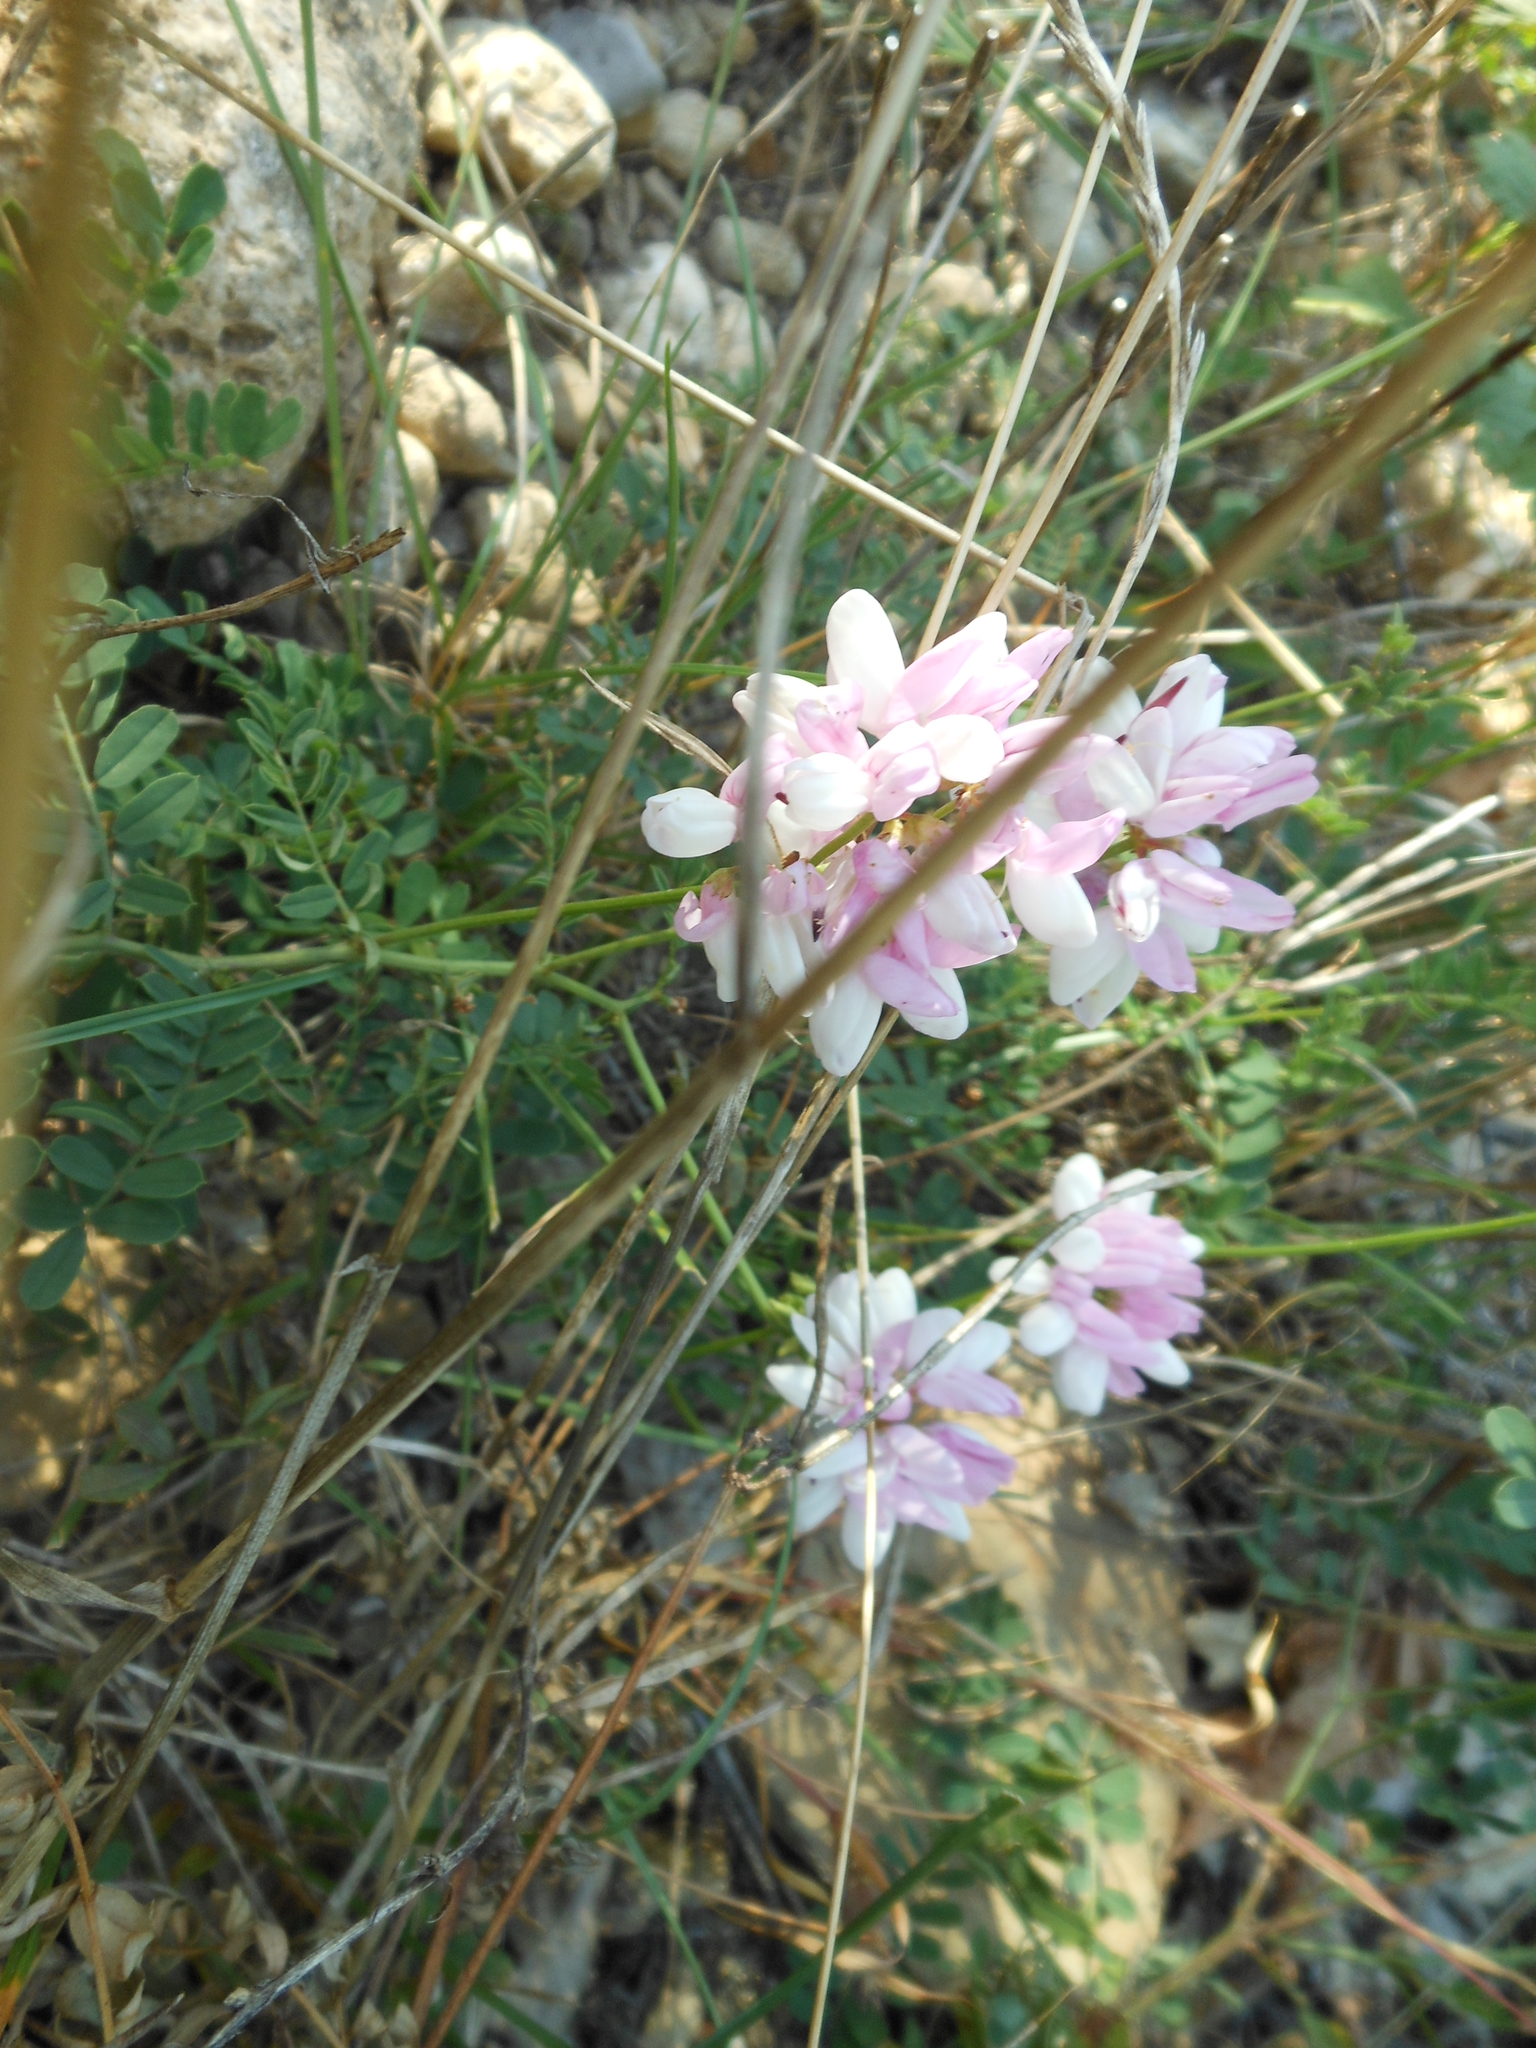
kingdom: Plantae
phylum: Tracheophyta
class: Magnoliopsida
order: Fabales
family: Fabaceae
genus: Coronilla
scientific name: Coronilla varia
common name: Crownvetch
